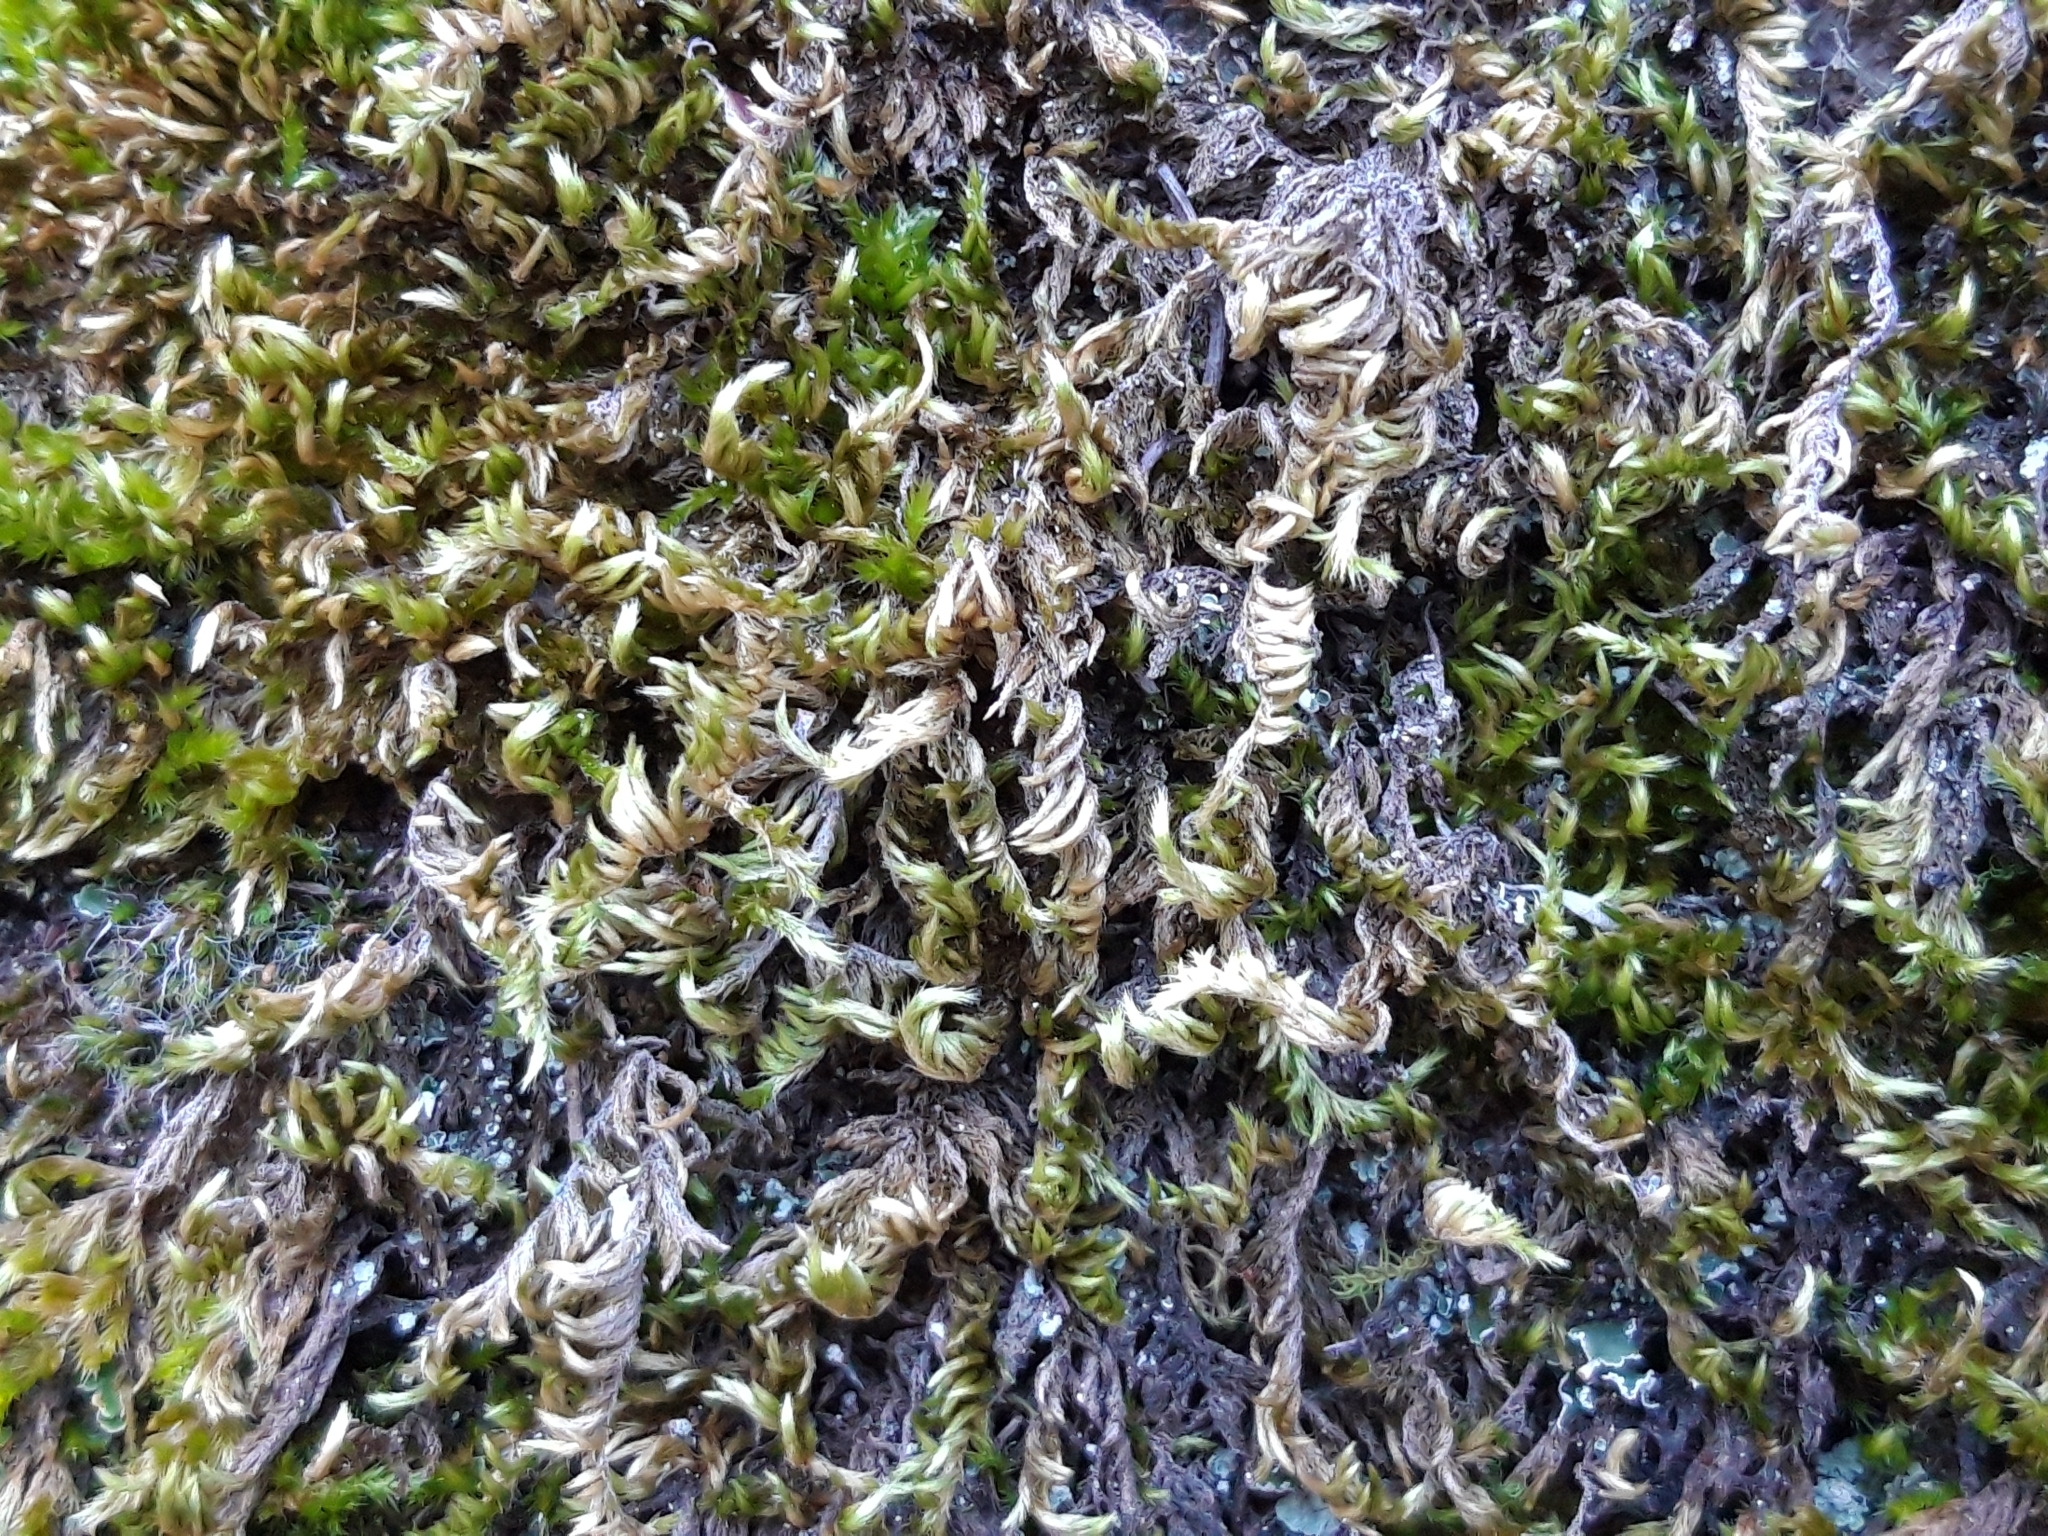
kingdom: Plantae
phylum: Bryophyta
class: Bryopsida
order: Hypnales
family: Brachytheciaceae
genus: Homalothecium
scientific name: Homalothecium sericeum
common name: Silky wall feather-moss
